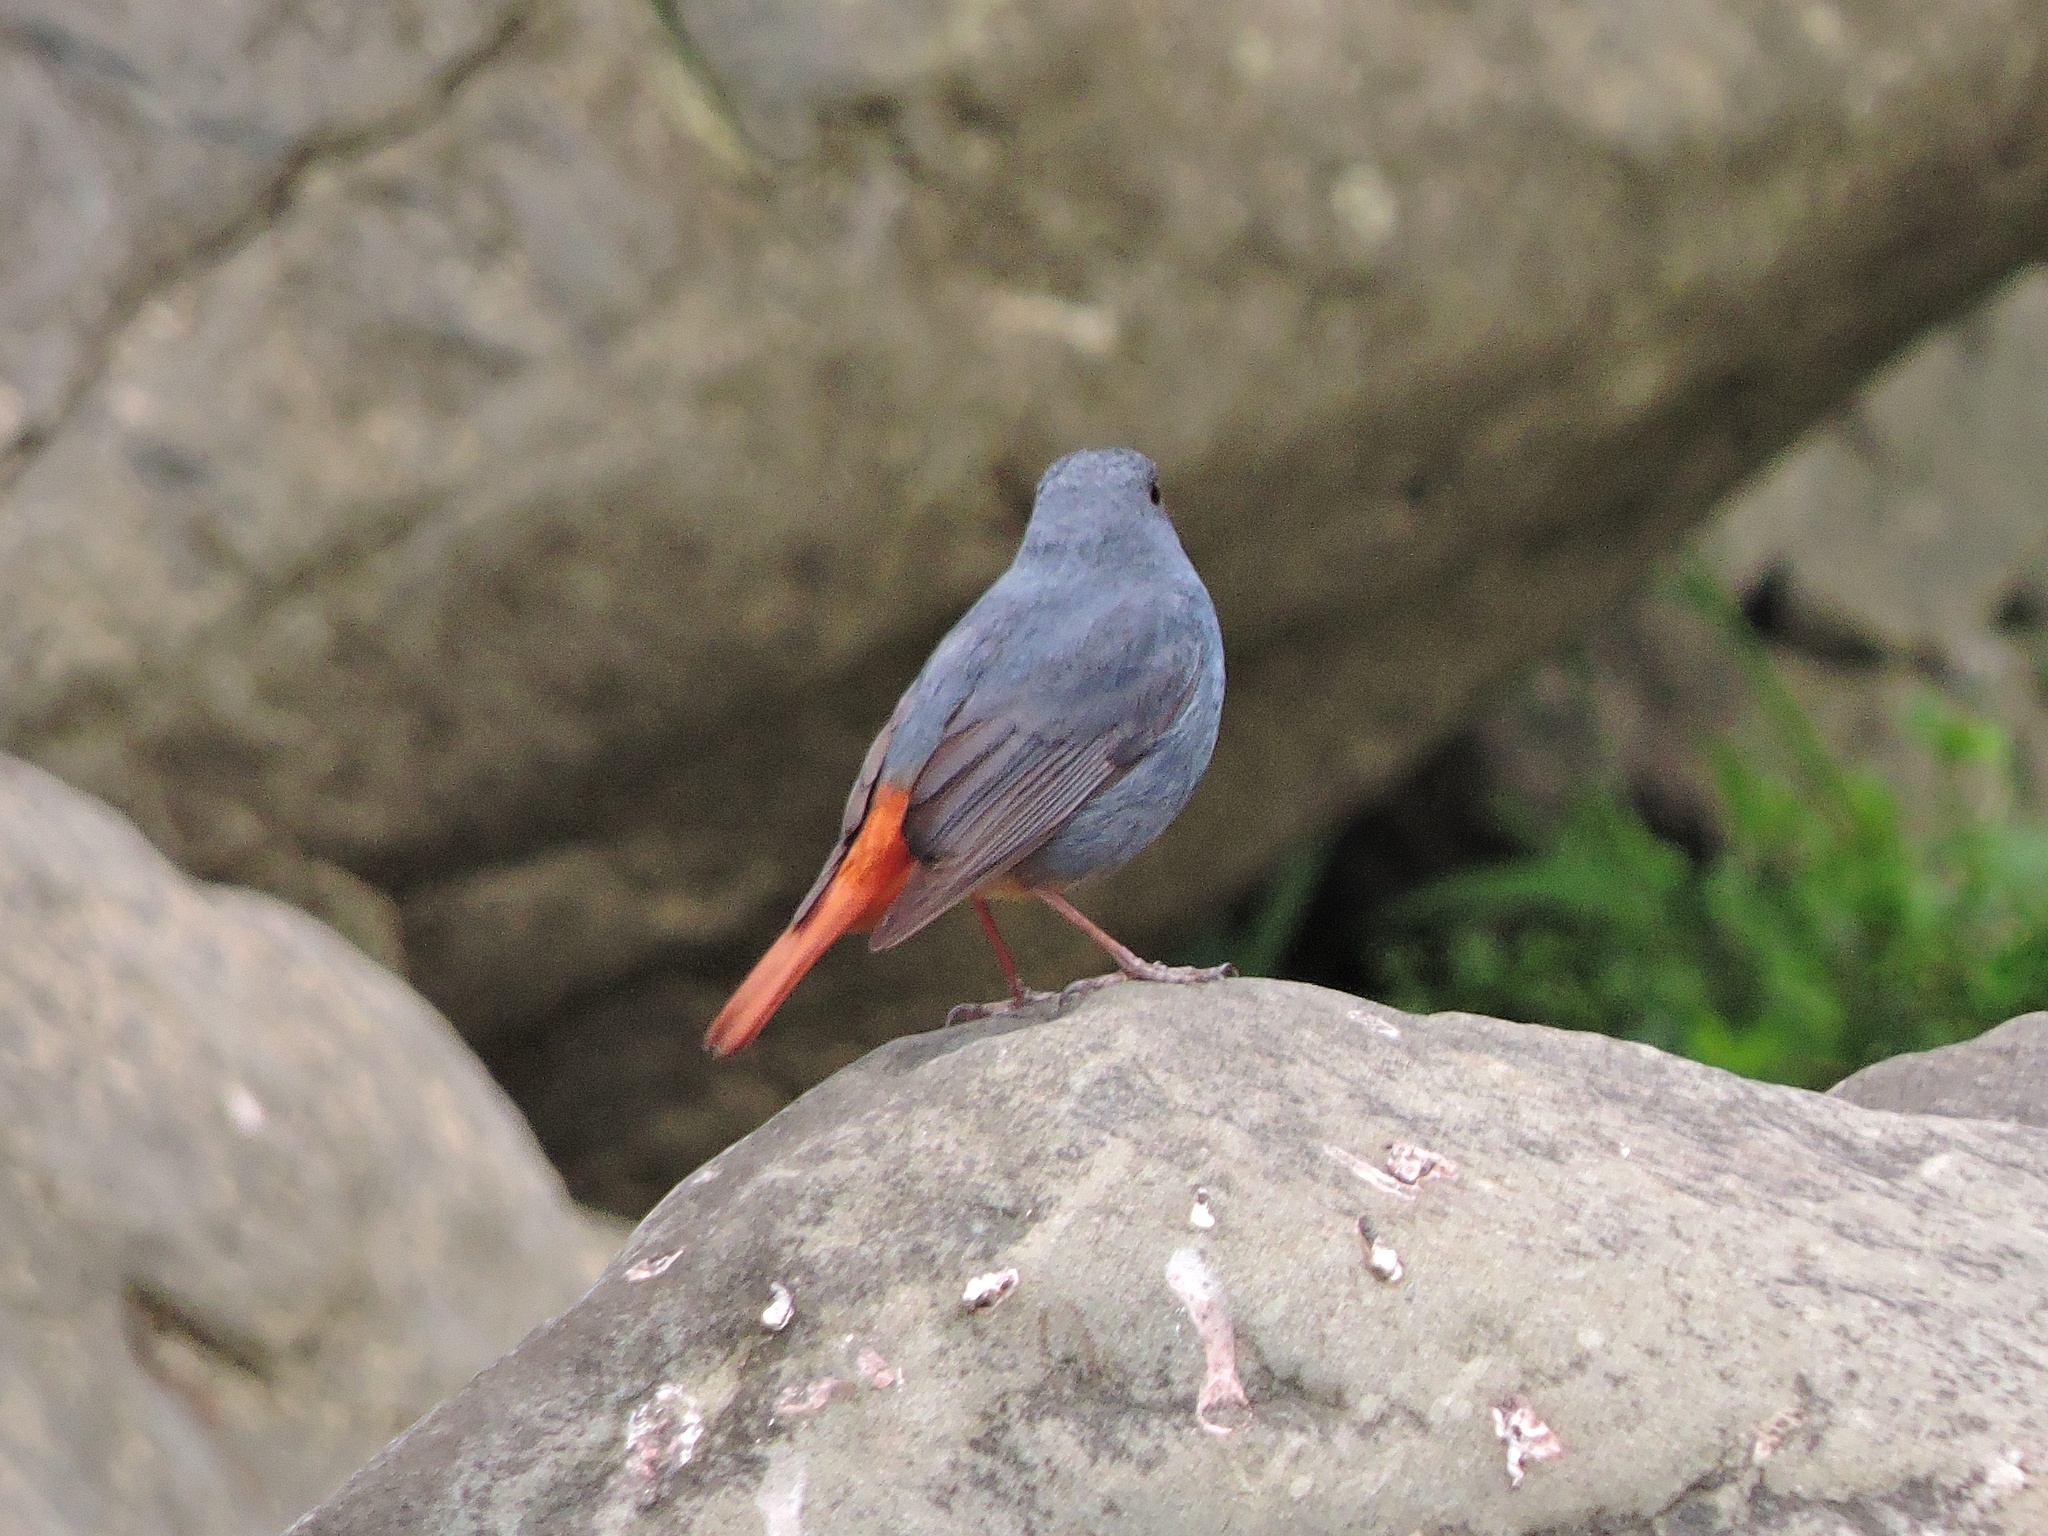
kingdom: Animalia
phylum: Chordata
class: Aves
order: Passeriformes
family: Muscicapidae
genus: Phoenicurus
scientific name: Phoenicurus fuliginosus
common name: Plumbeous water redstart
